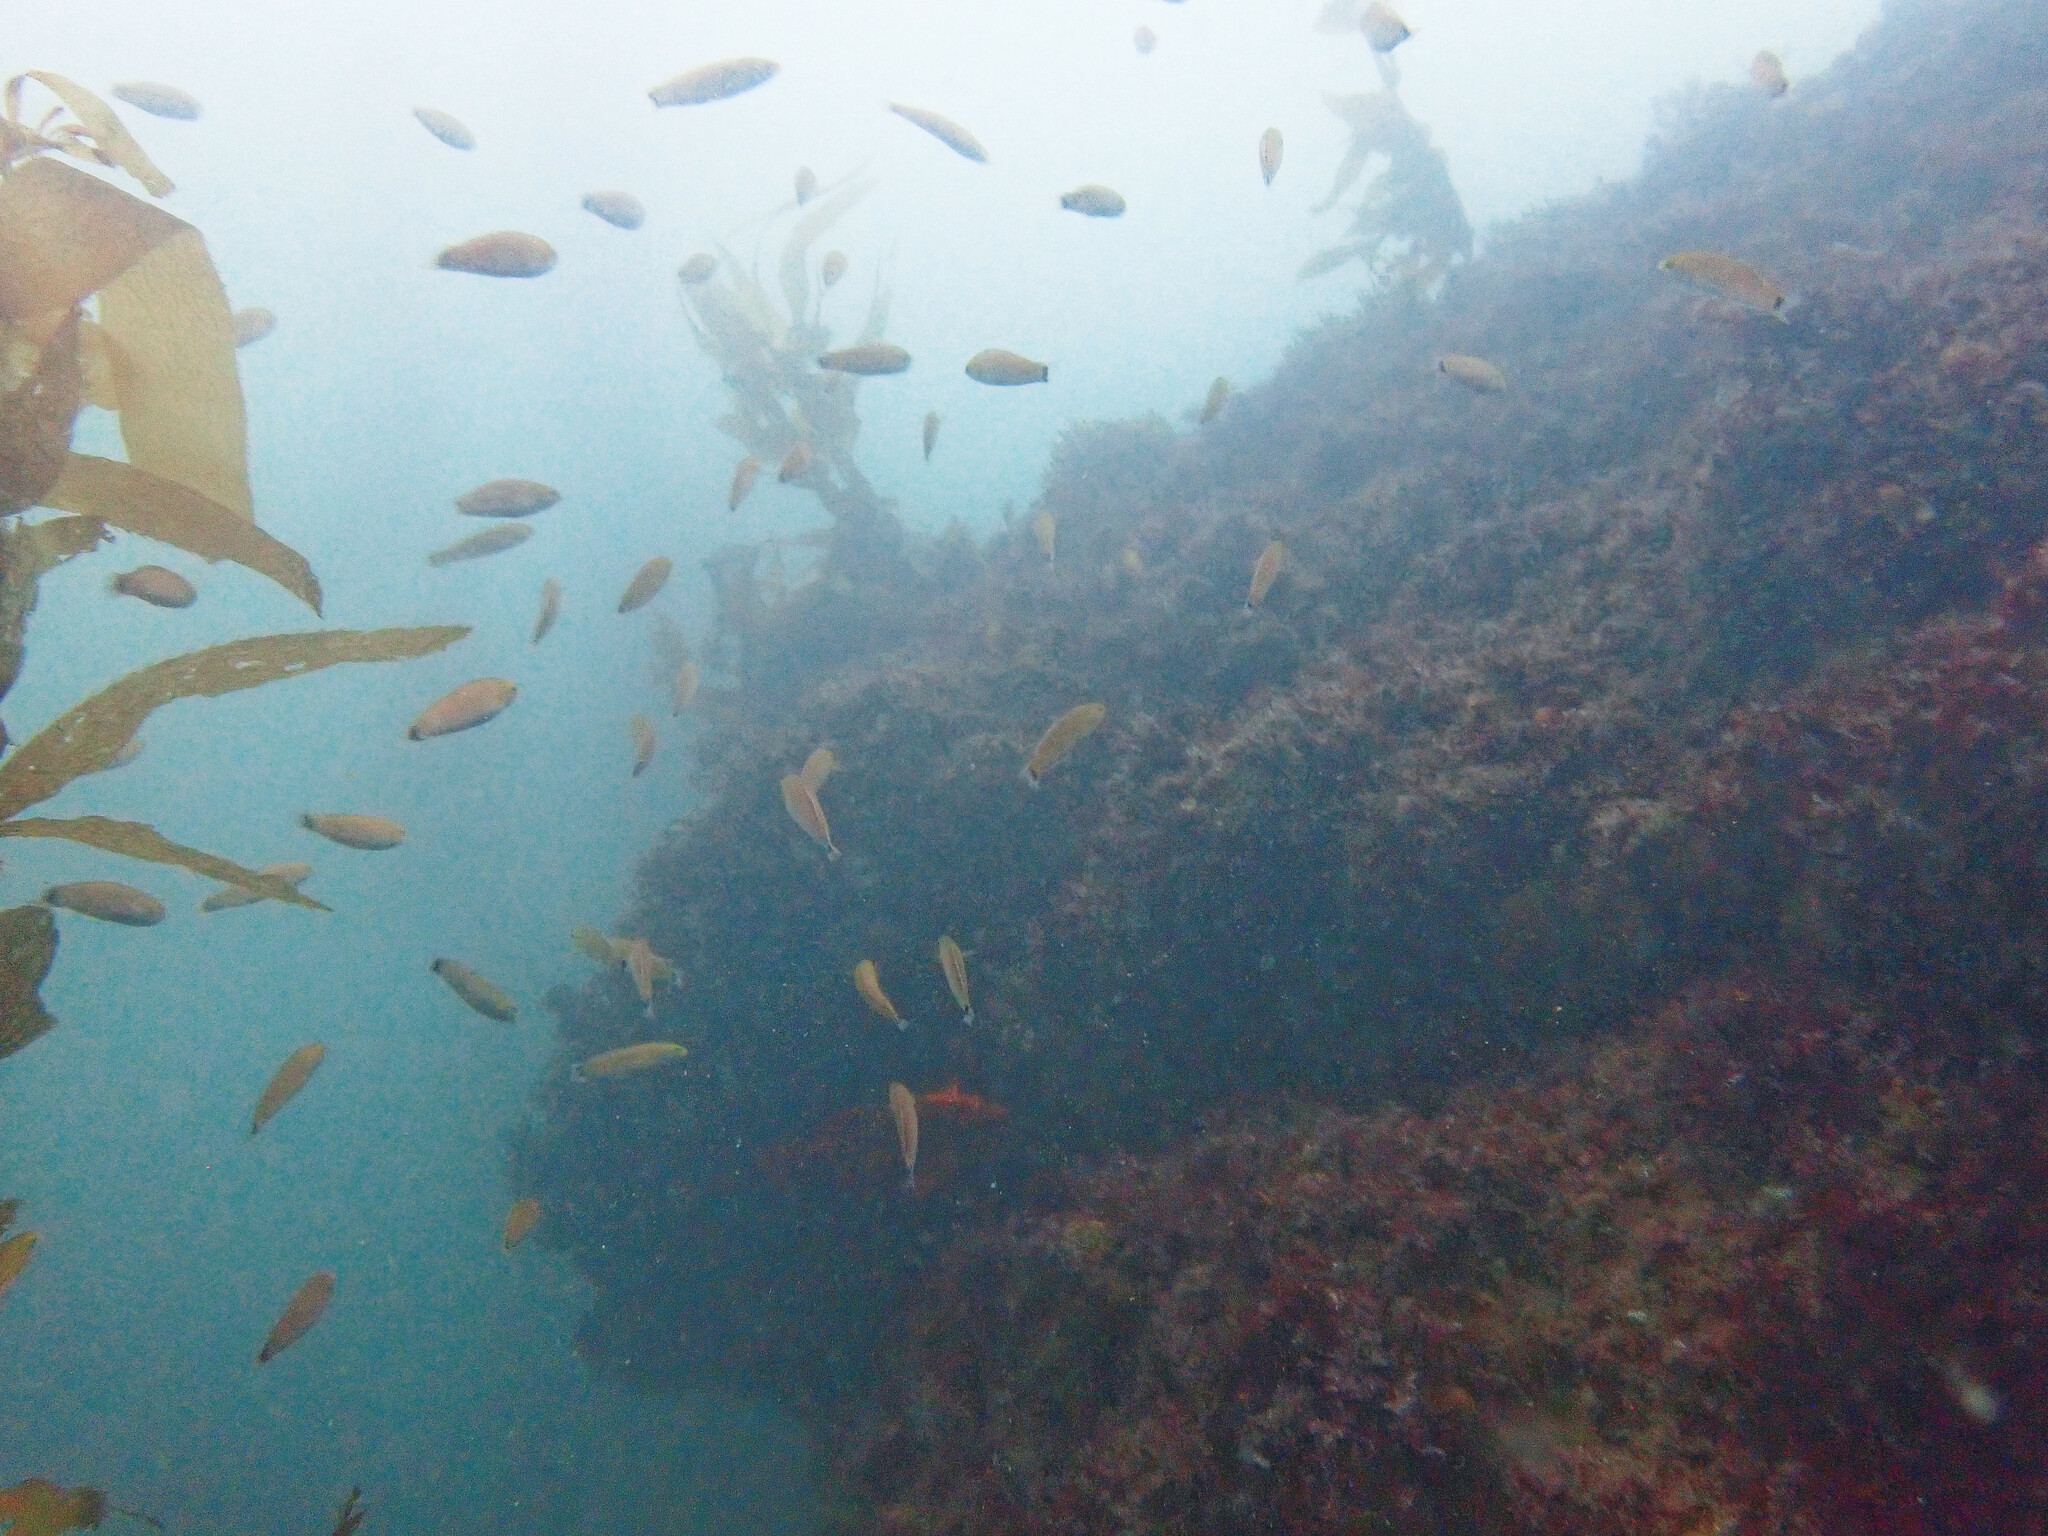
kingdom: Animalia
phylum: Chordata
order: Perciformes
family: Labridae
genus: Oxyjulis
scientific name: Oxyjulis californica
